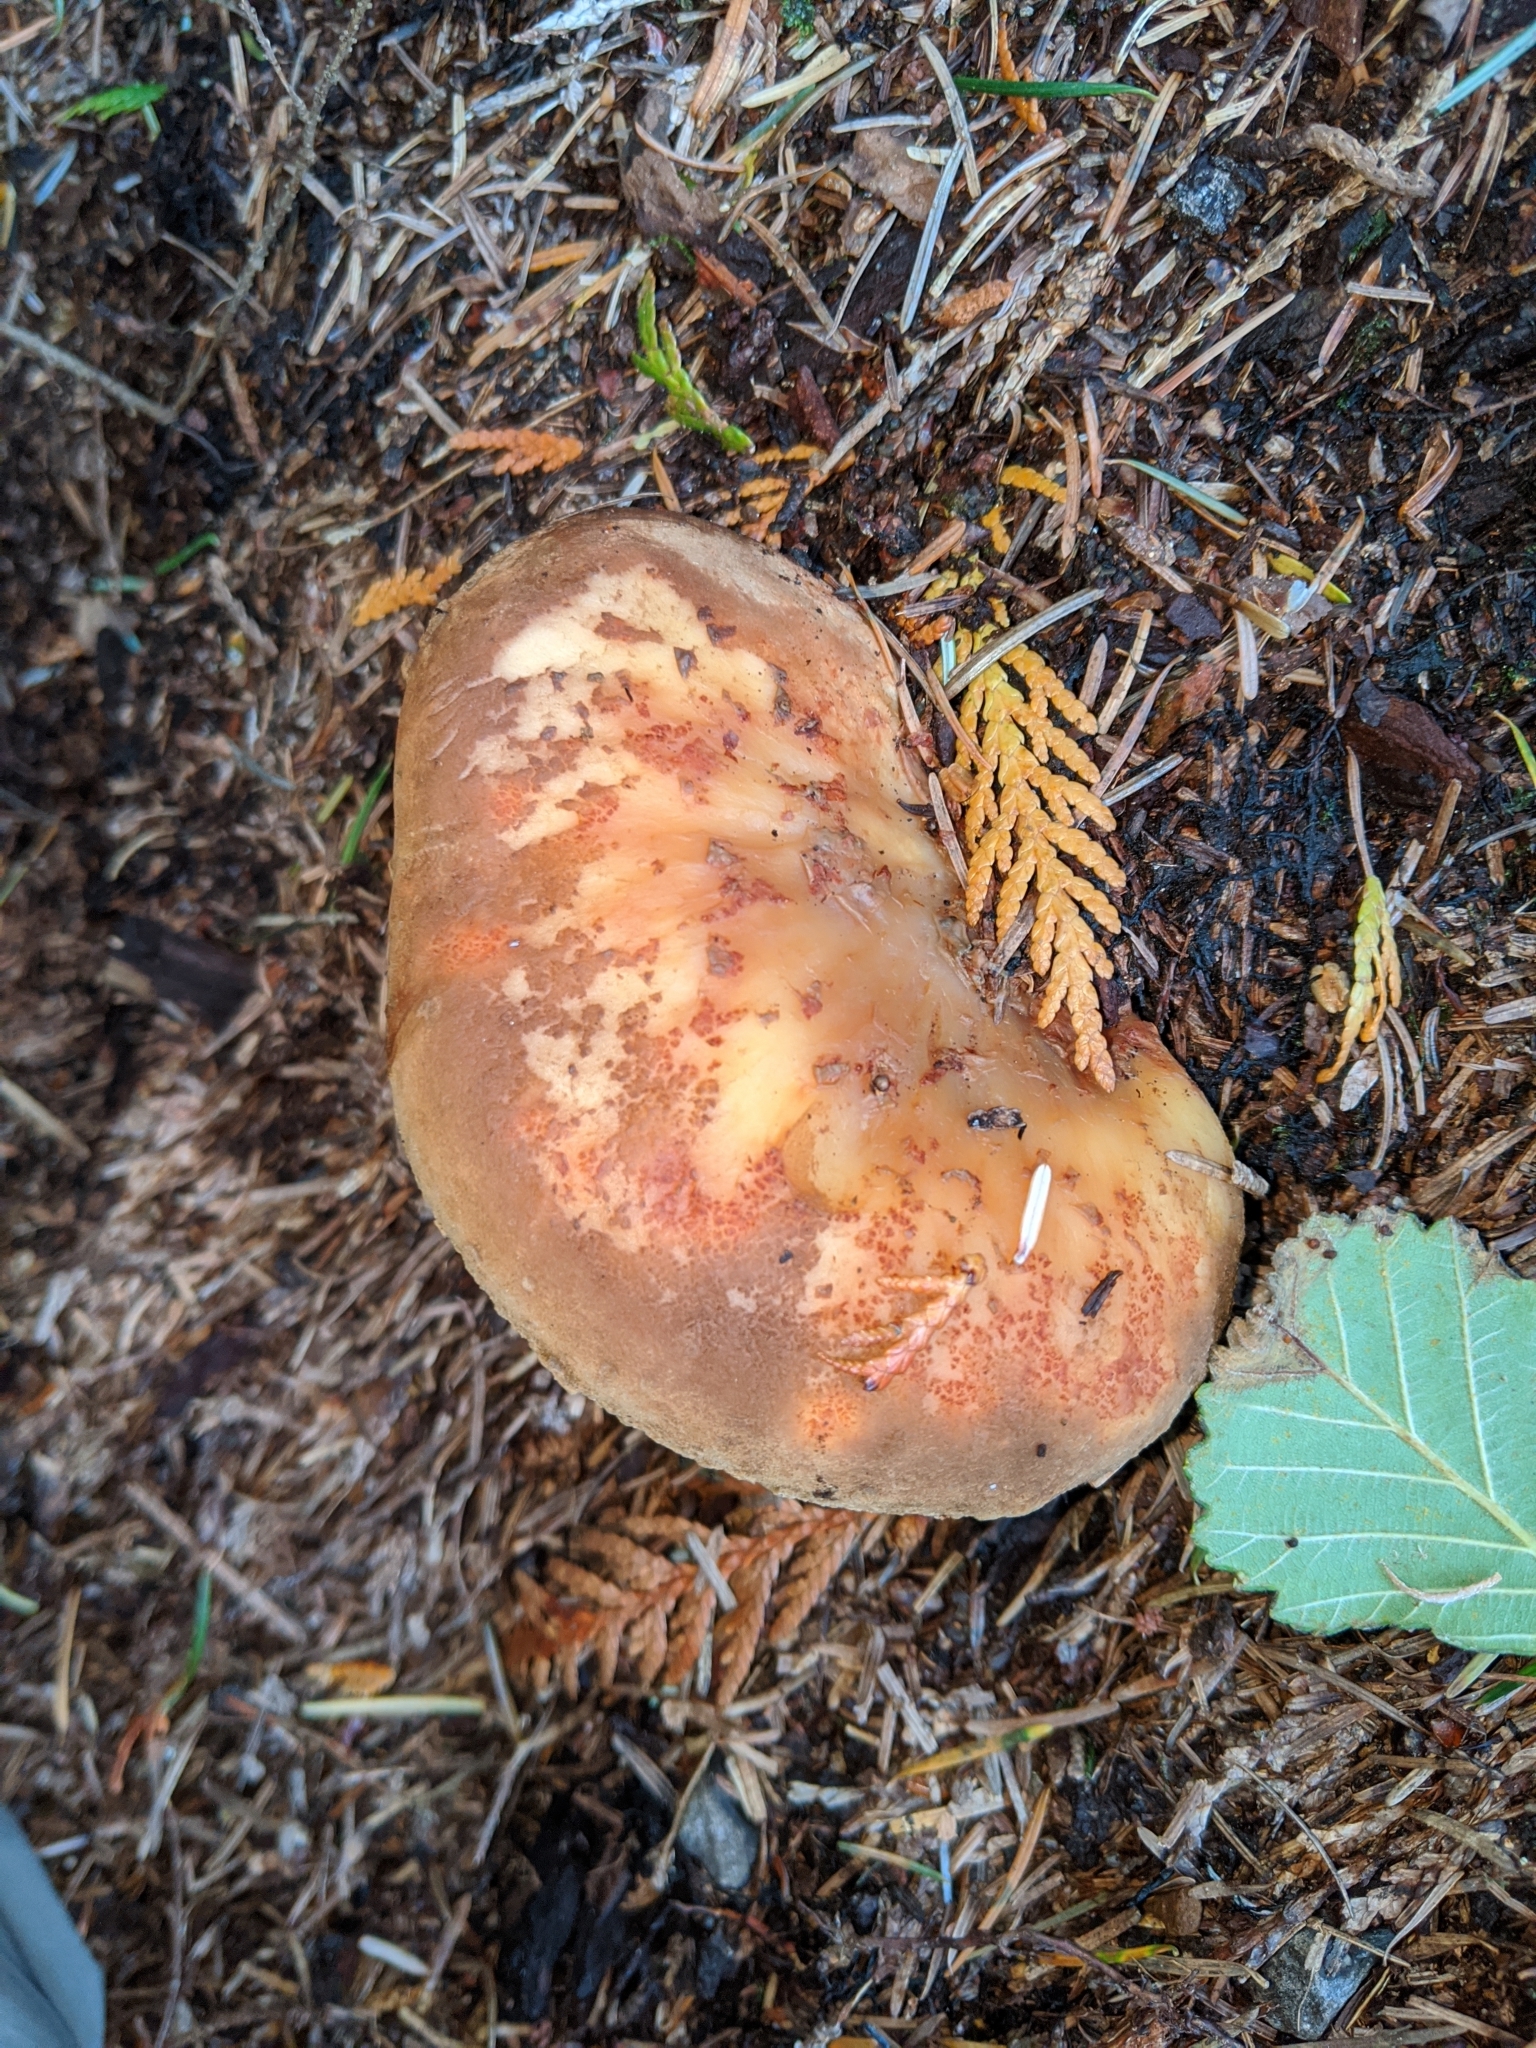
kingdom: Fungi
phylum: Basidiomycota
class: Agaricomycetes
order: Boletales
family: Tapinellaceae
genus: Tapinella
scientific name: Tapinella atrotomentosa
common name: Velvet rollrim
